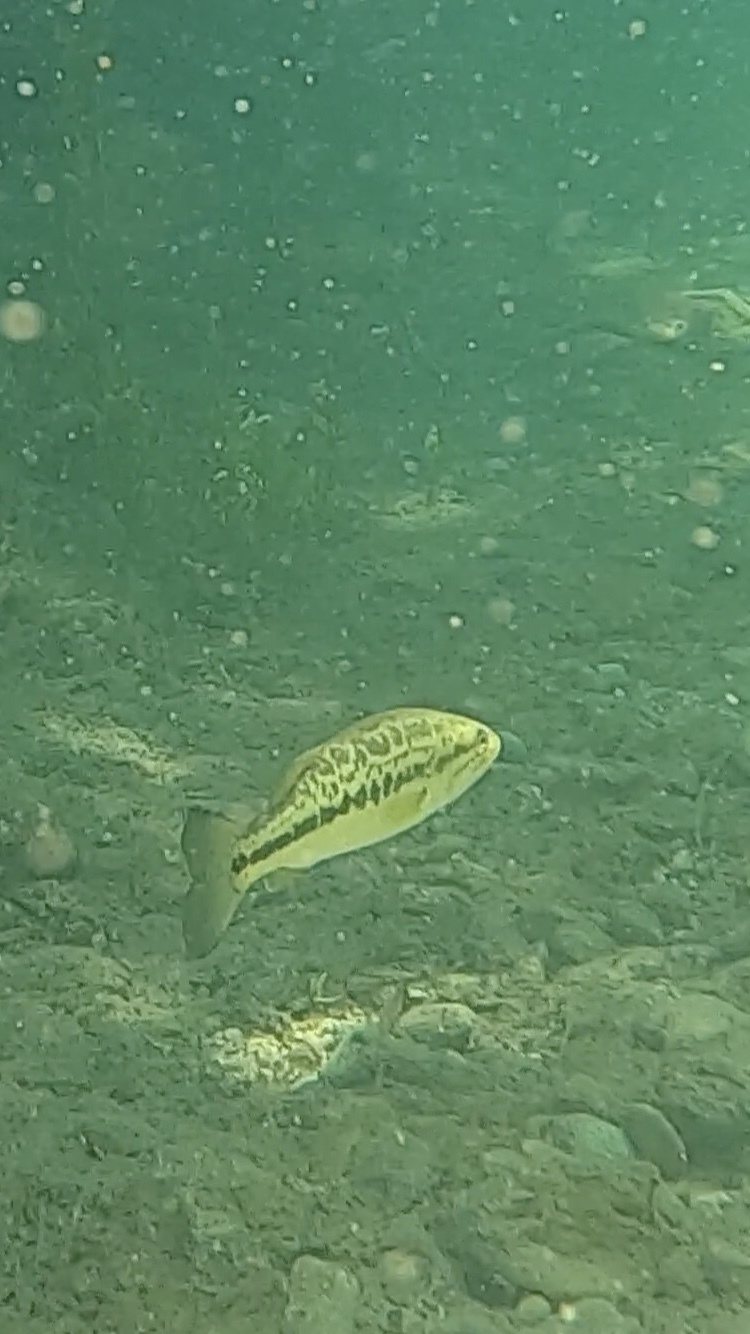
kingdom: Animalia
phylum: Chordata
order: Perciformes
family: Centrarchidae
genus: Micropterus
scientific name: Micropterus
